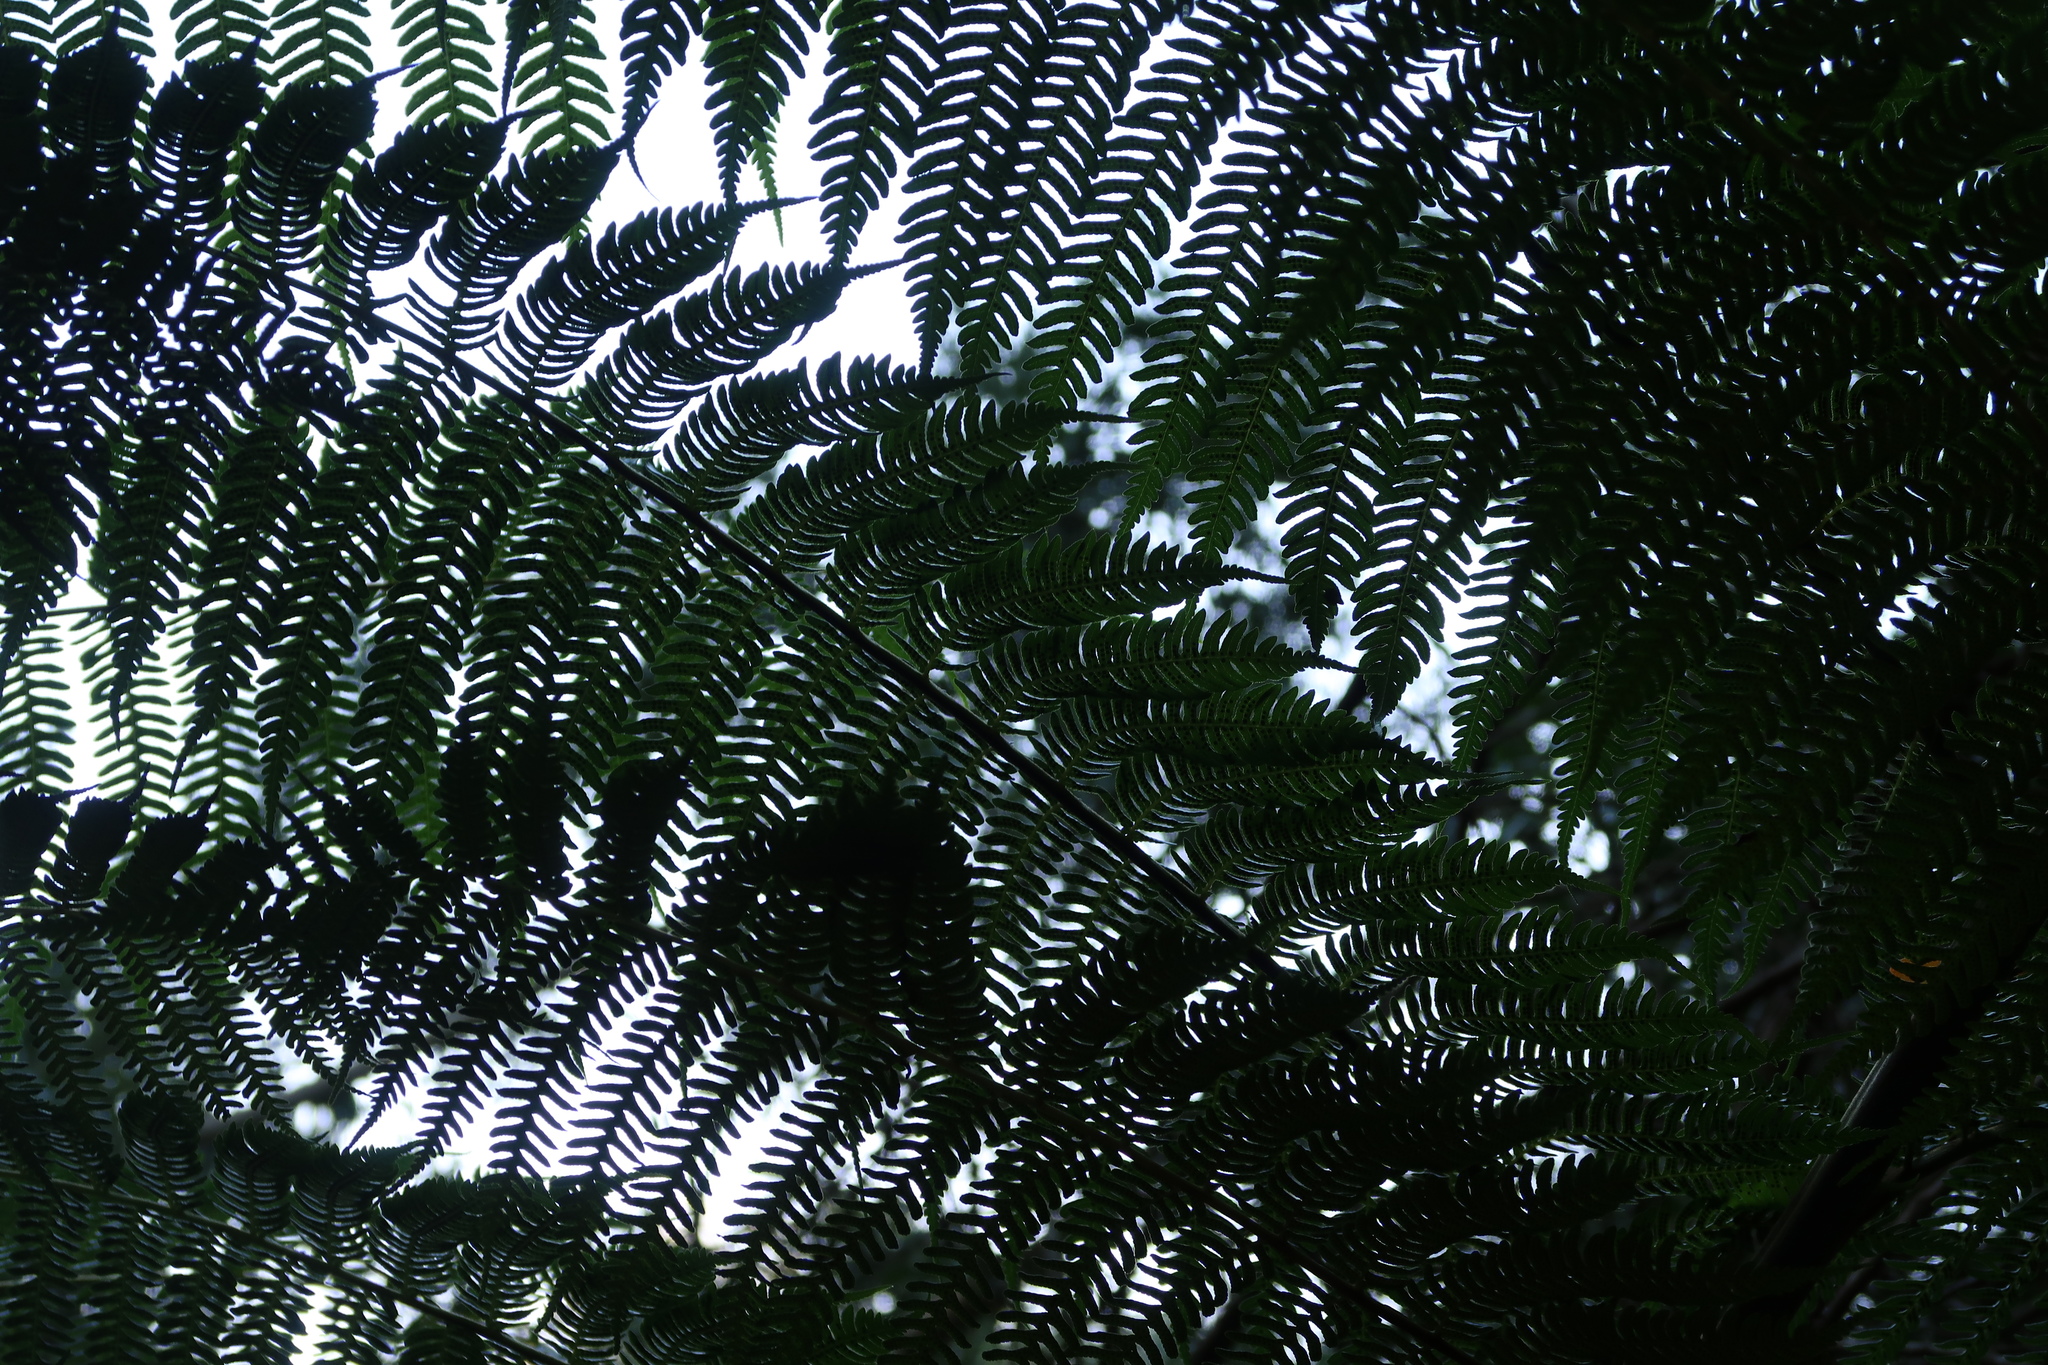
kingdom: Plantae
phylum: Tracheophyta
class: Polypodiopsida
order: Cyatheales
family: Cyatheaceae
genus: Sphaeropteris
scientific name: Sphaeropteris cooperi
